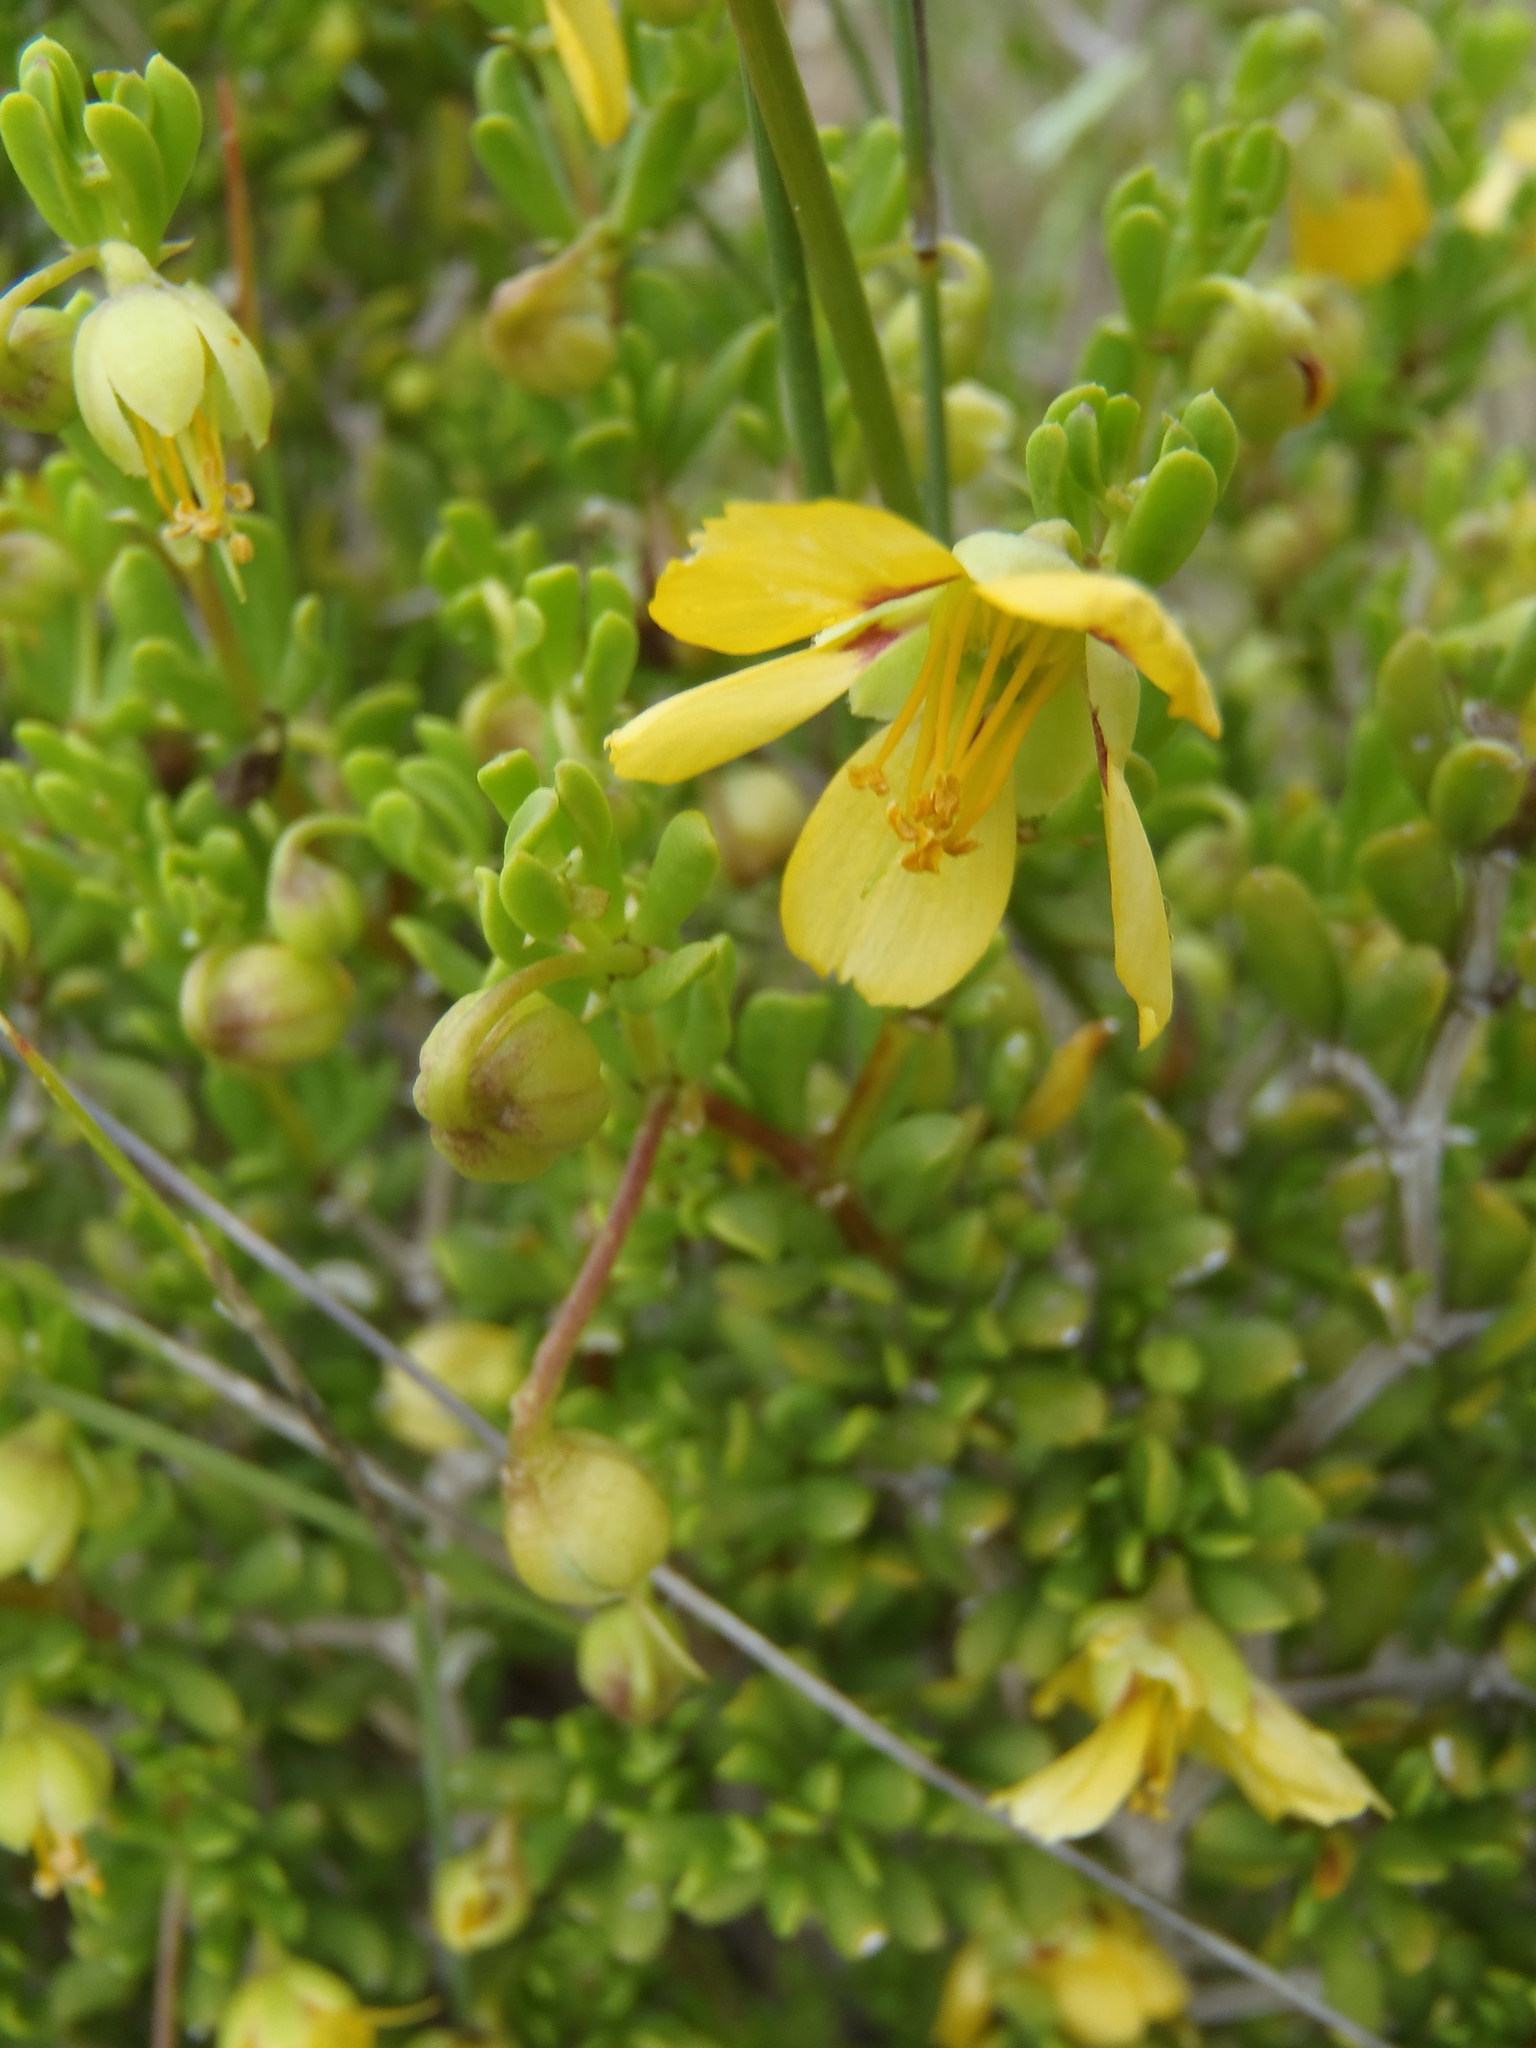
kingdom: Plantae
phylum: Tracheophyta
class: Magnoliopsida
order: Zygophyllales
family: Zygophyllaceae
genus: Roepera
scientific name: Roepera flexuosa
